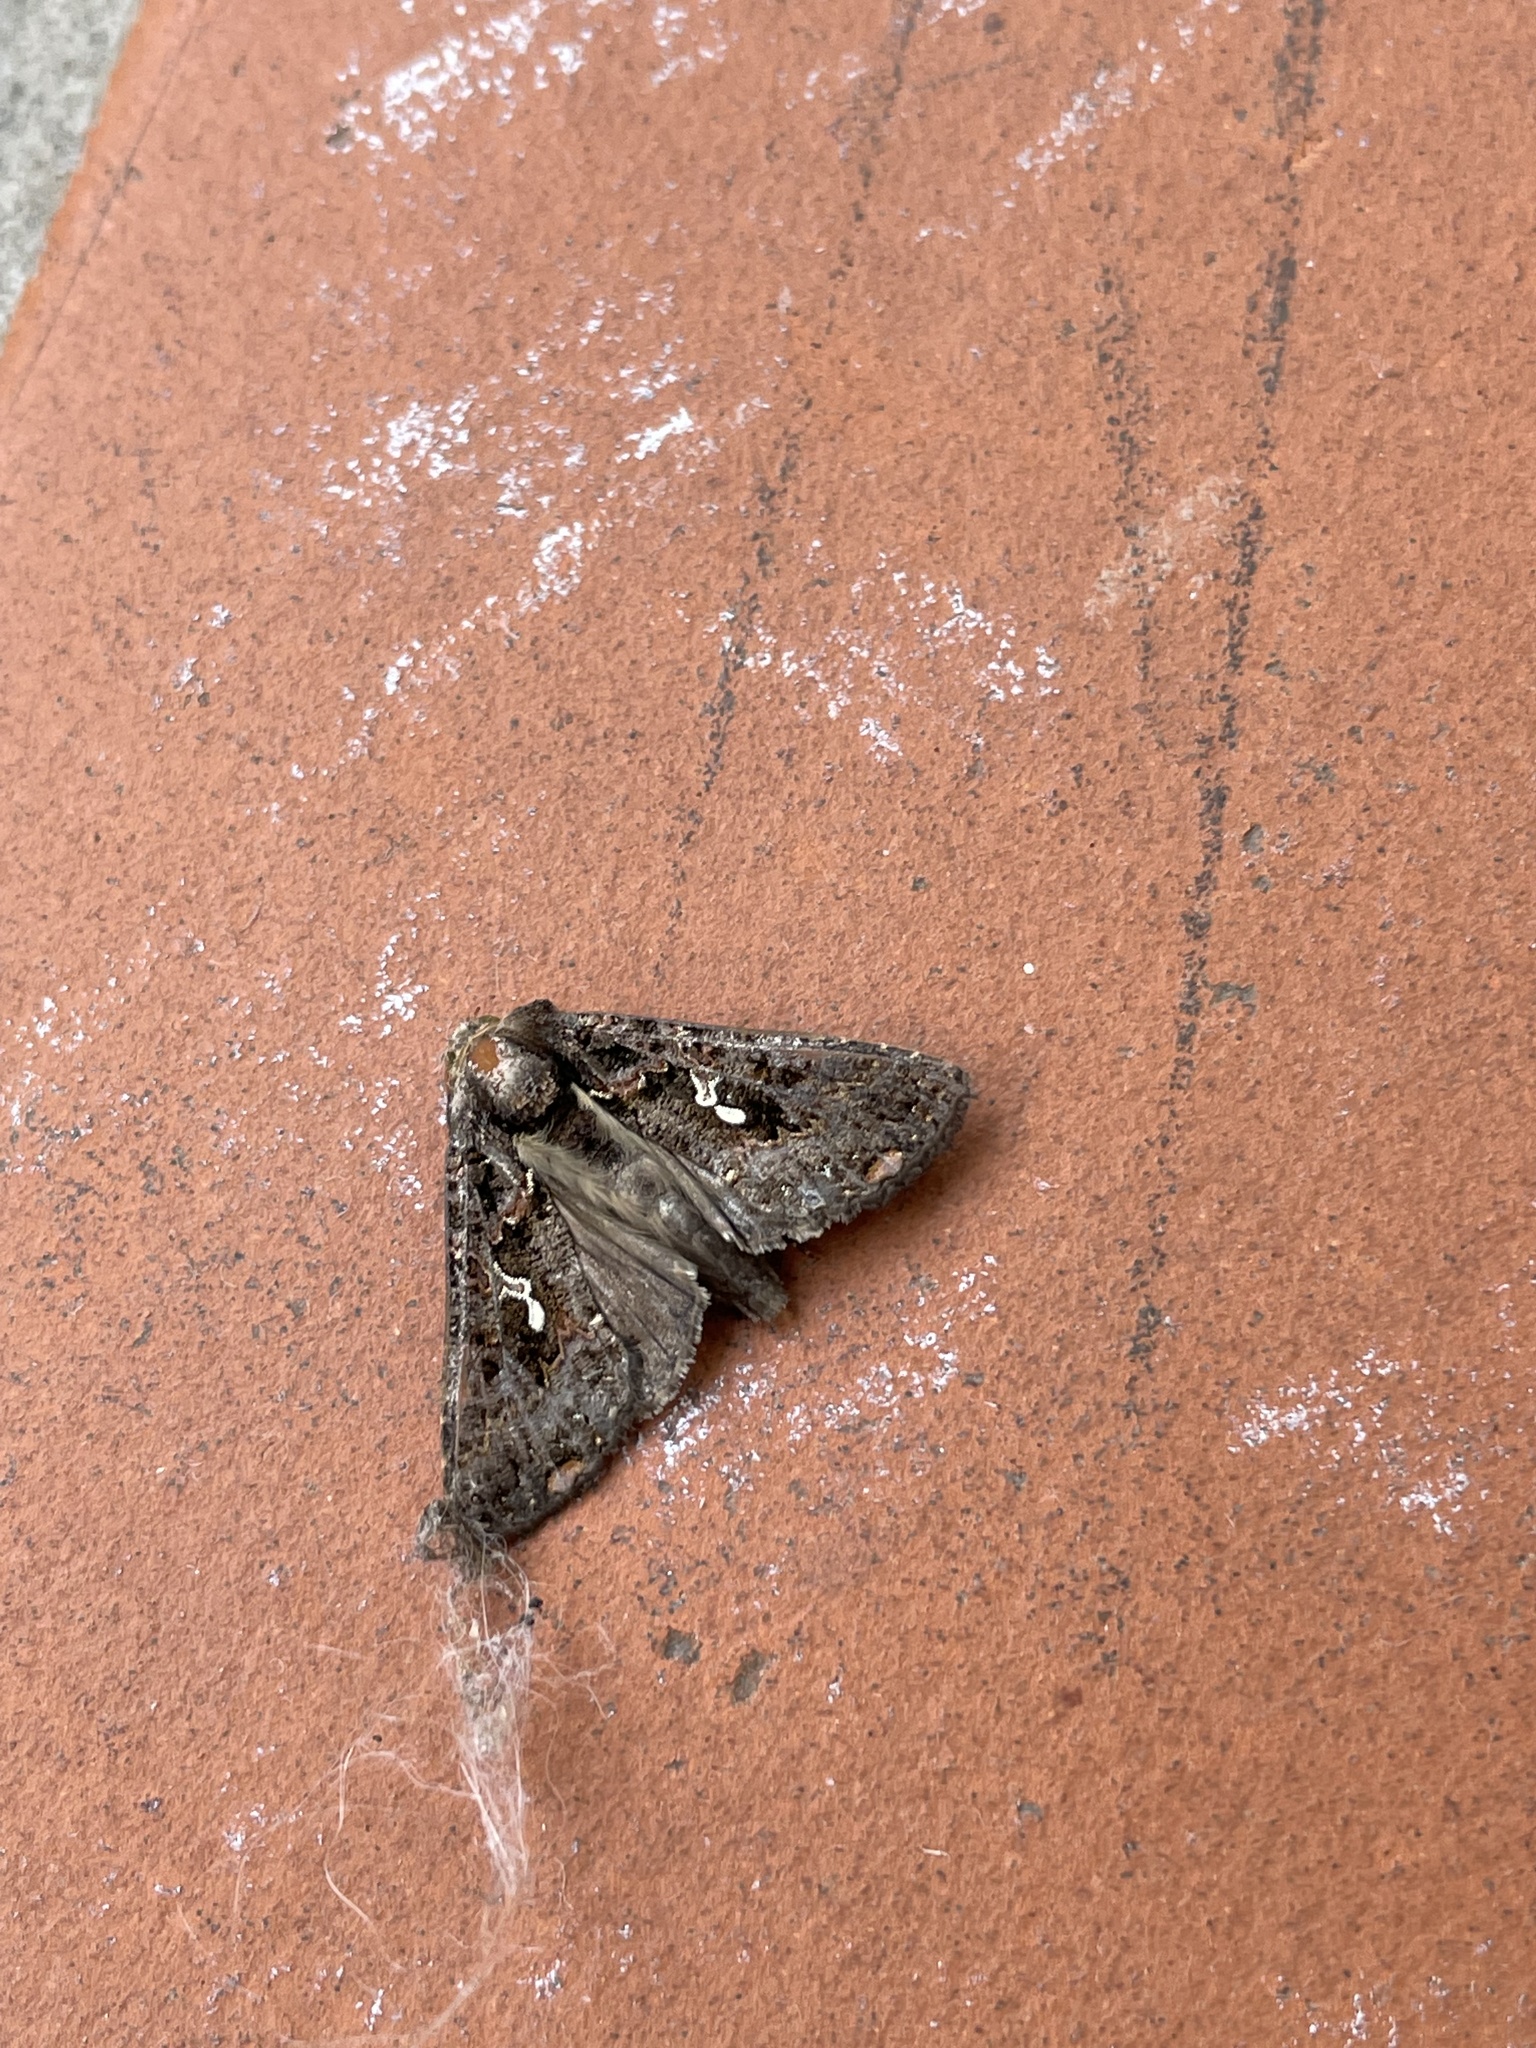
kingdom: Animalia
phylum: Arthropoda
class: Insecta
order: Lepidoptera
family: Noctuidae
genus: Ctenoplusia
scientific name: Ctenoplusia limbirena
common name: Scar bank gem
